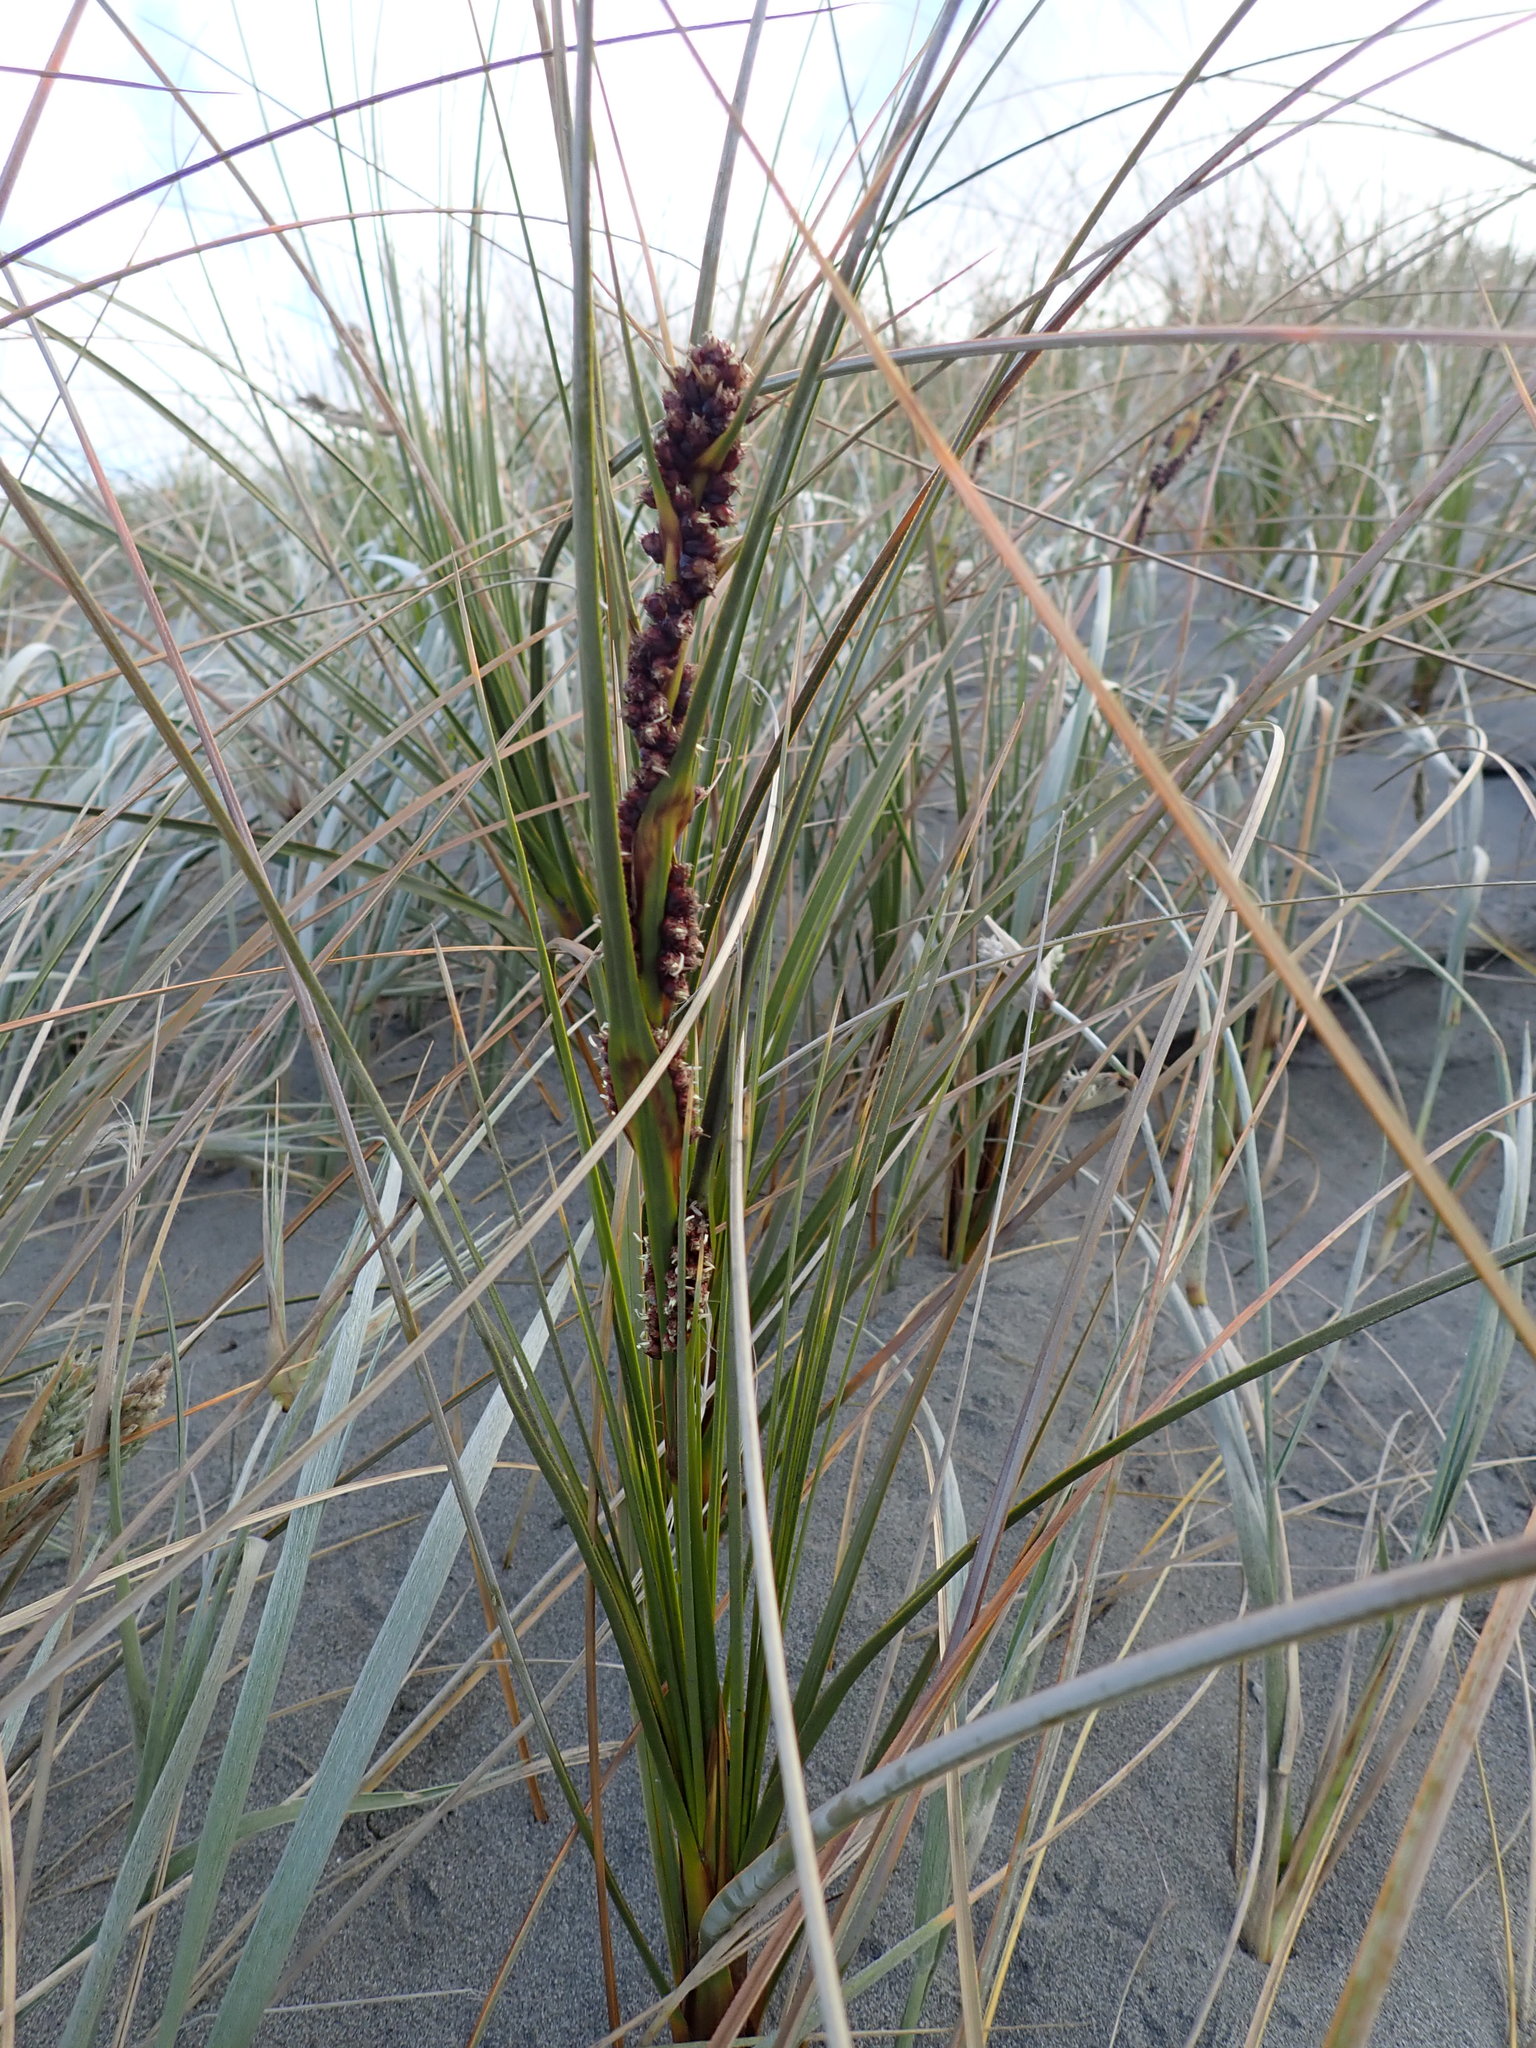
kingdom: Plantae
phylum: Tracheophyta
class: Liliopsida
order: Poales
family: Cyperaceae
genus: Ficinia
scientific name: Ficinia spiralis
